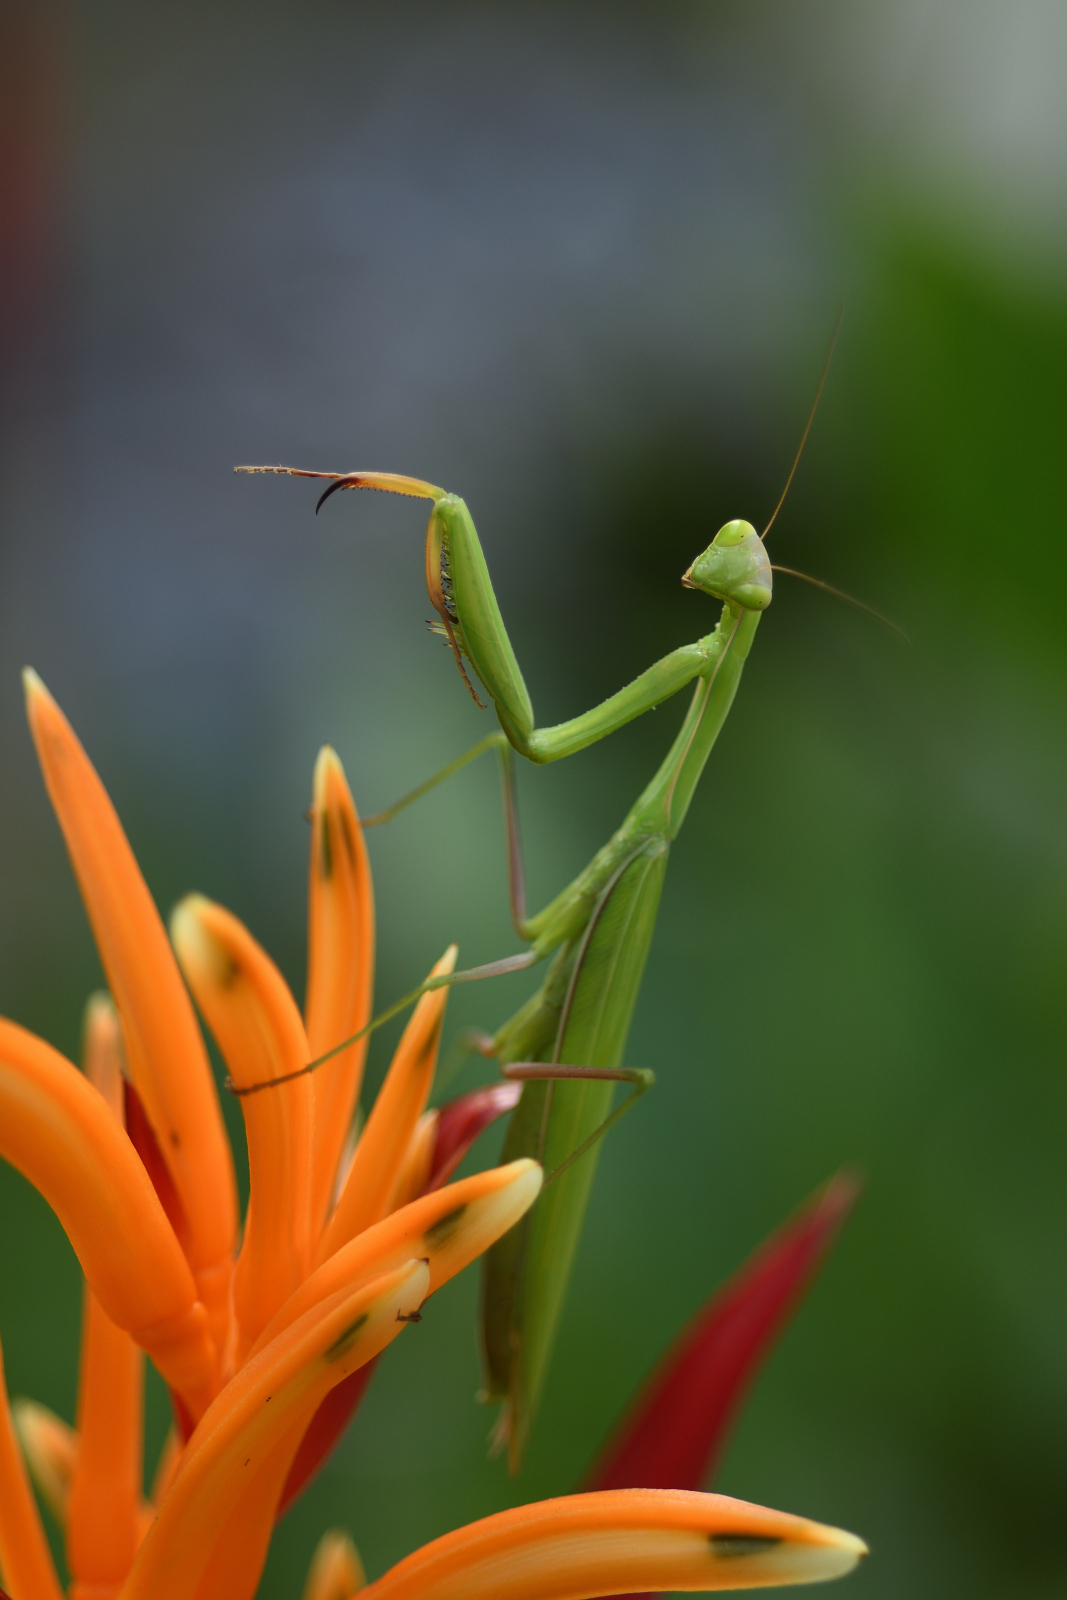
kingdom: Animalia
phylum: Arthropoda
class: Insecta
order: Mantodea
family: Mantidae
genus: Mantis
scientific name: Mantis religiosa
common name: Praying mantis
